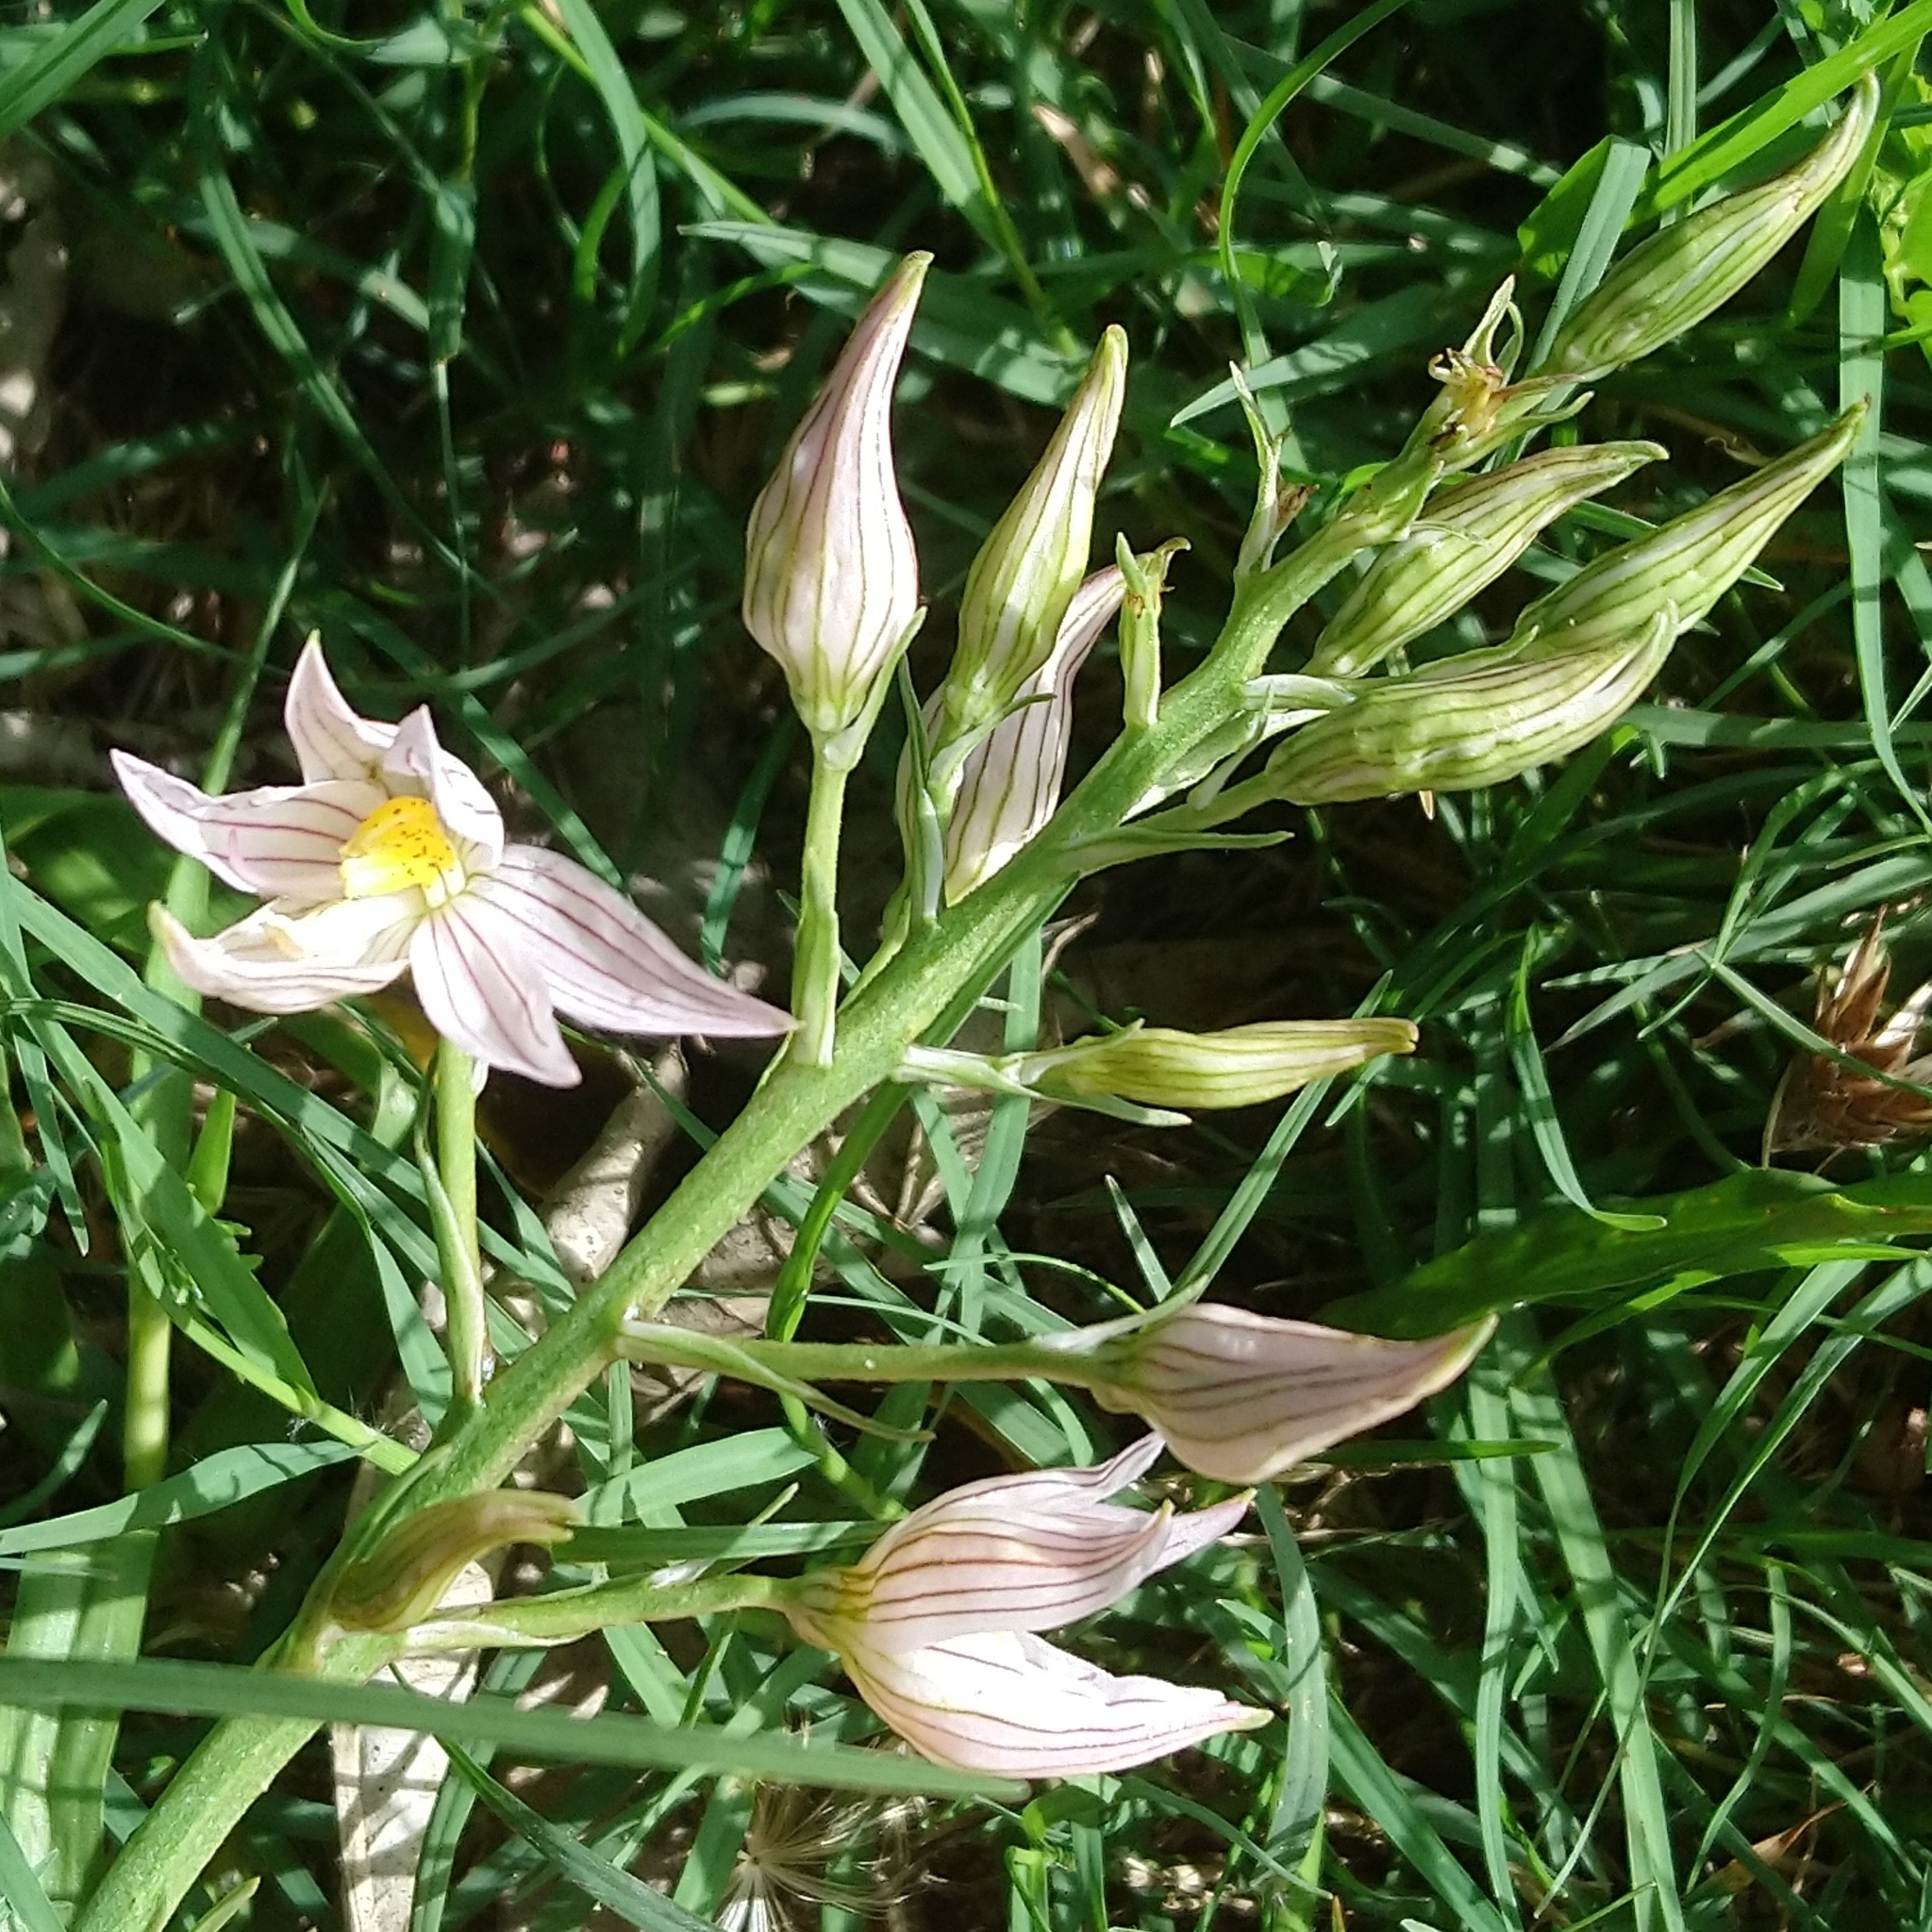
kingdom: Plantae
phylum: Tracheophyta
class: Liliopsida
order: Asparagales
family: Tecophilaeaceae
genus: Cyanella
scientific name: Cyanella lutea
